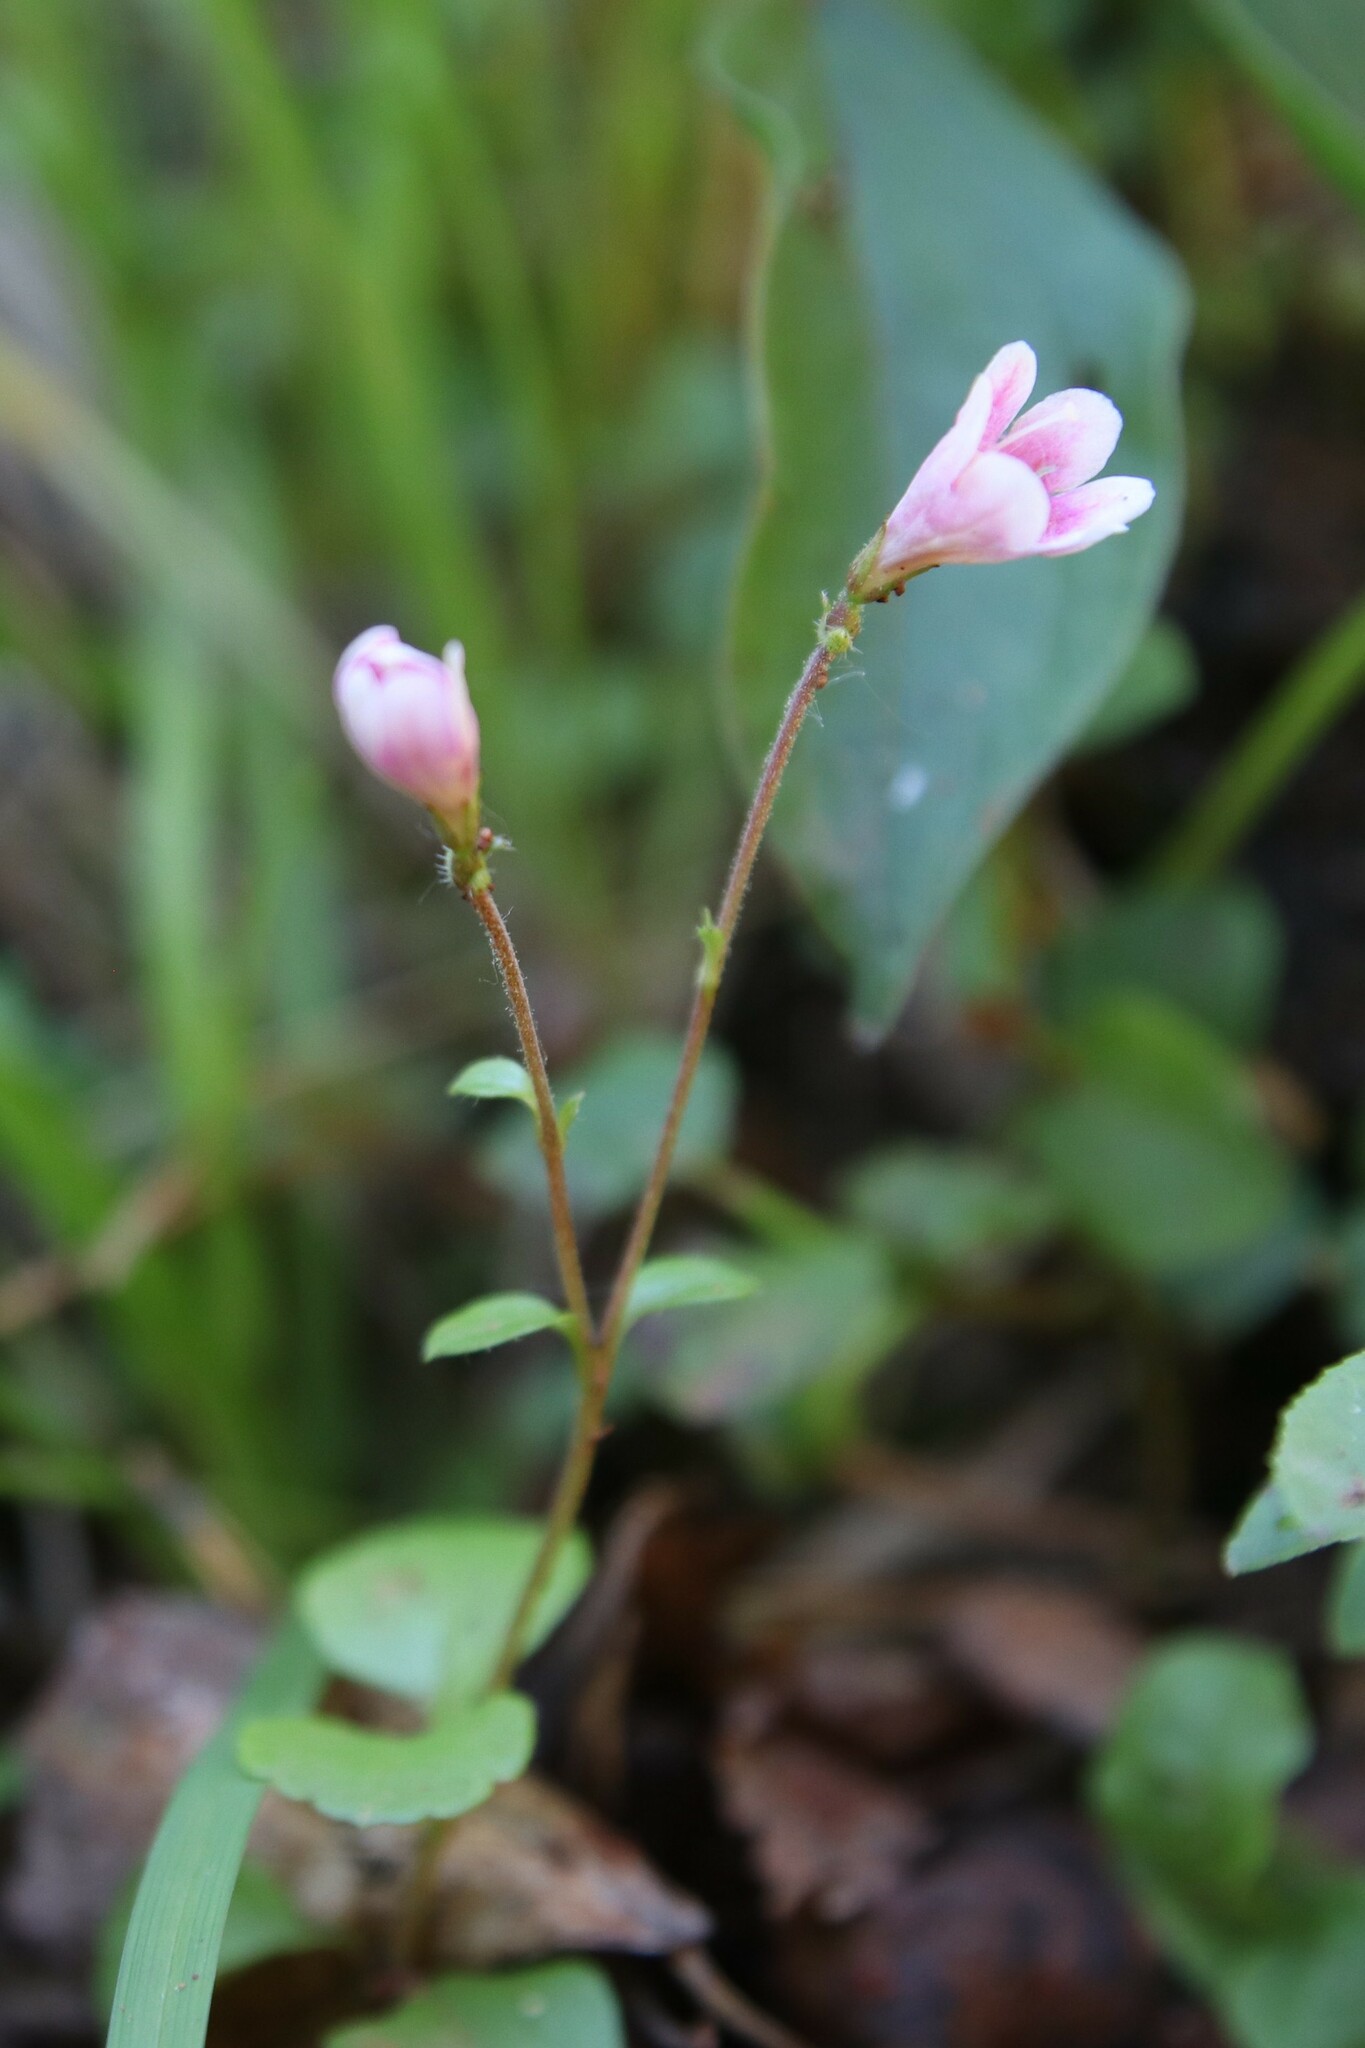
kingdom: Plantae
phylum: Tracheophyta
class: Magnoliopsida
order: Dipsacales
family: Caprifoliaceae
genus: Linnaea
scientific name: Linnaea borealis
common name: Twinflower
